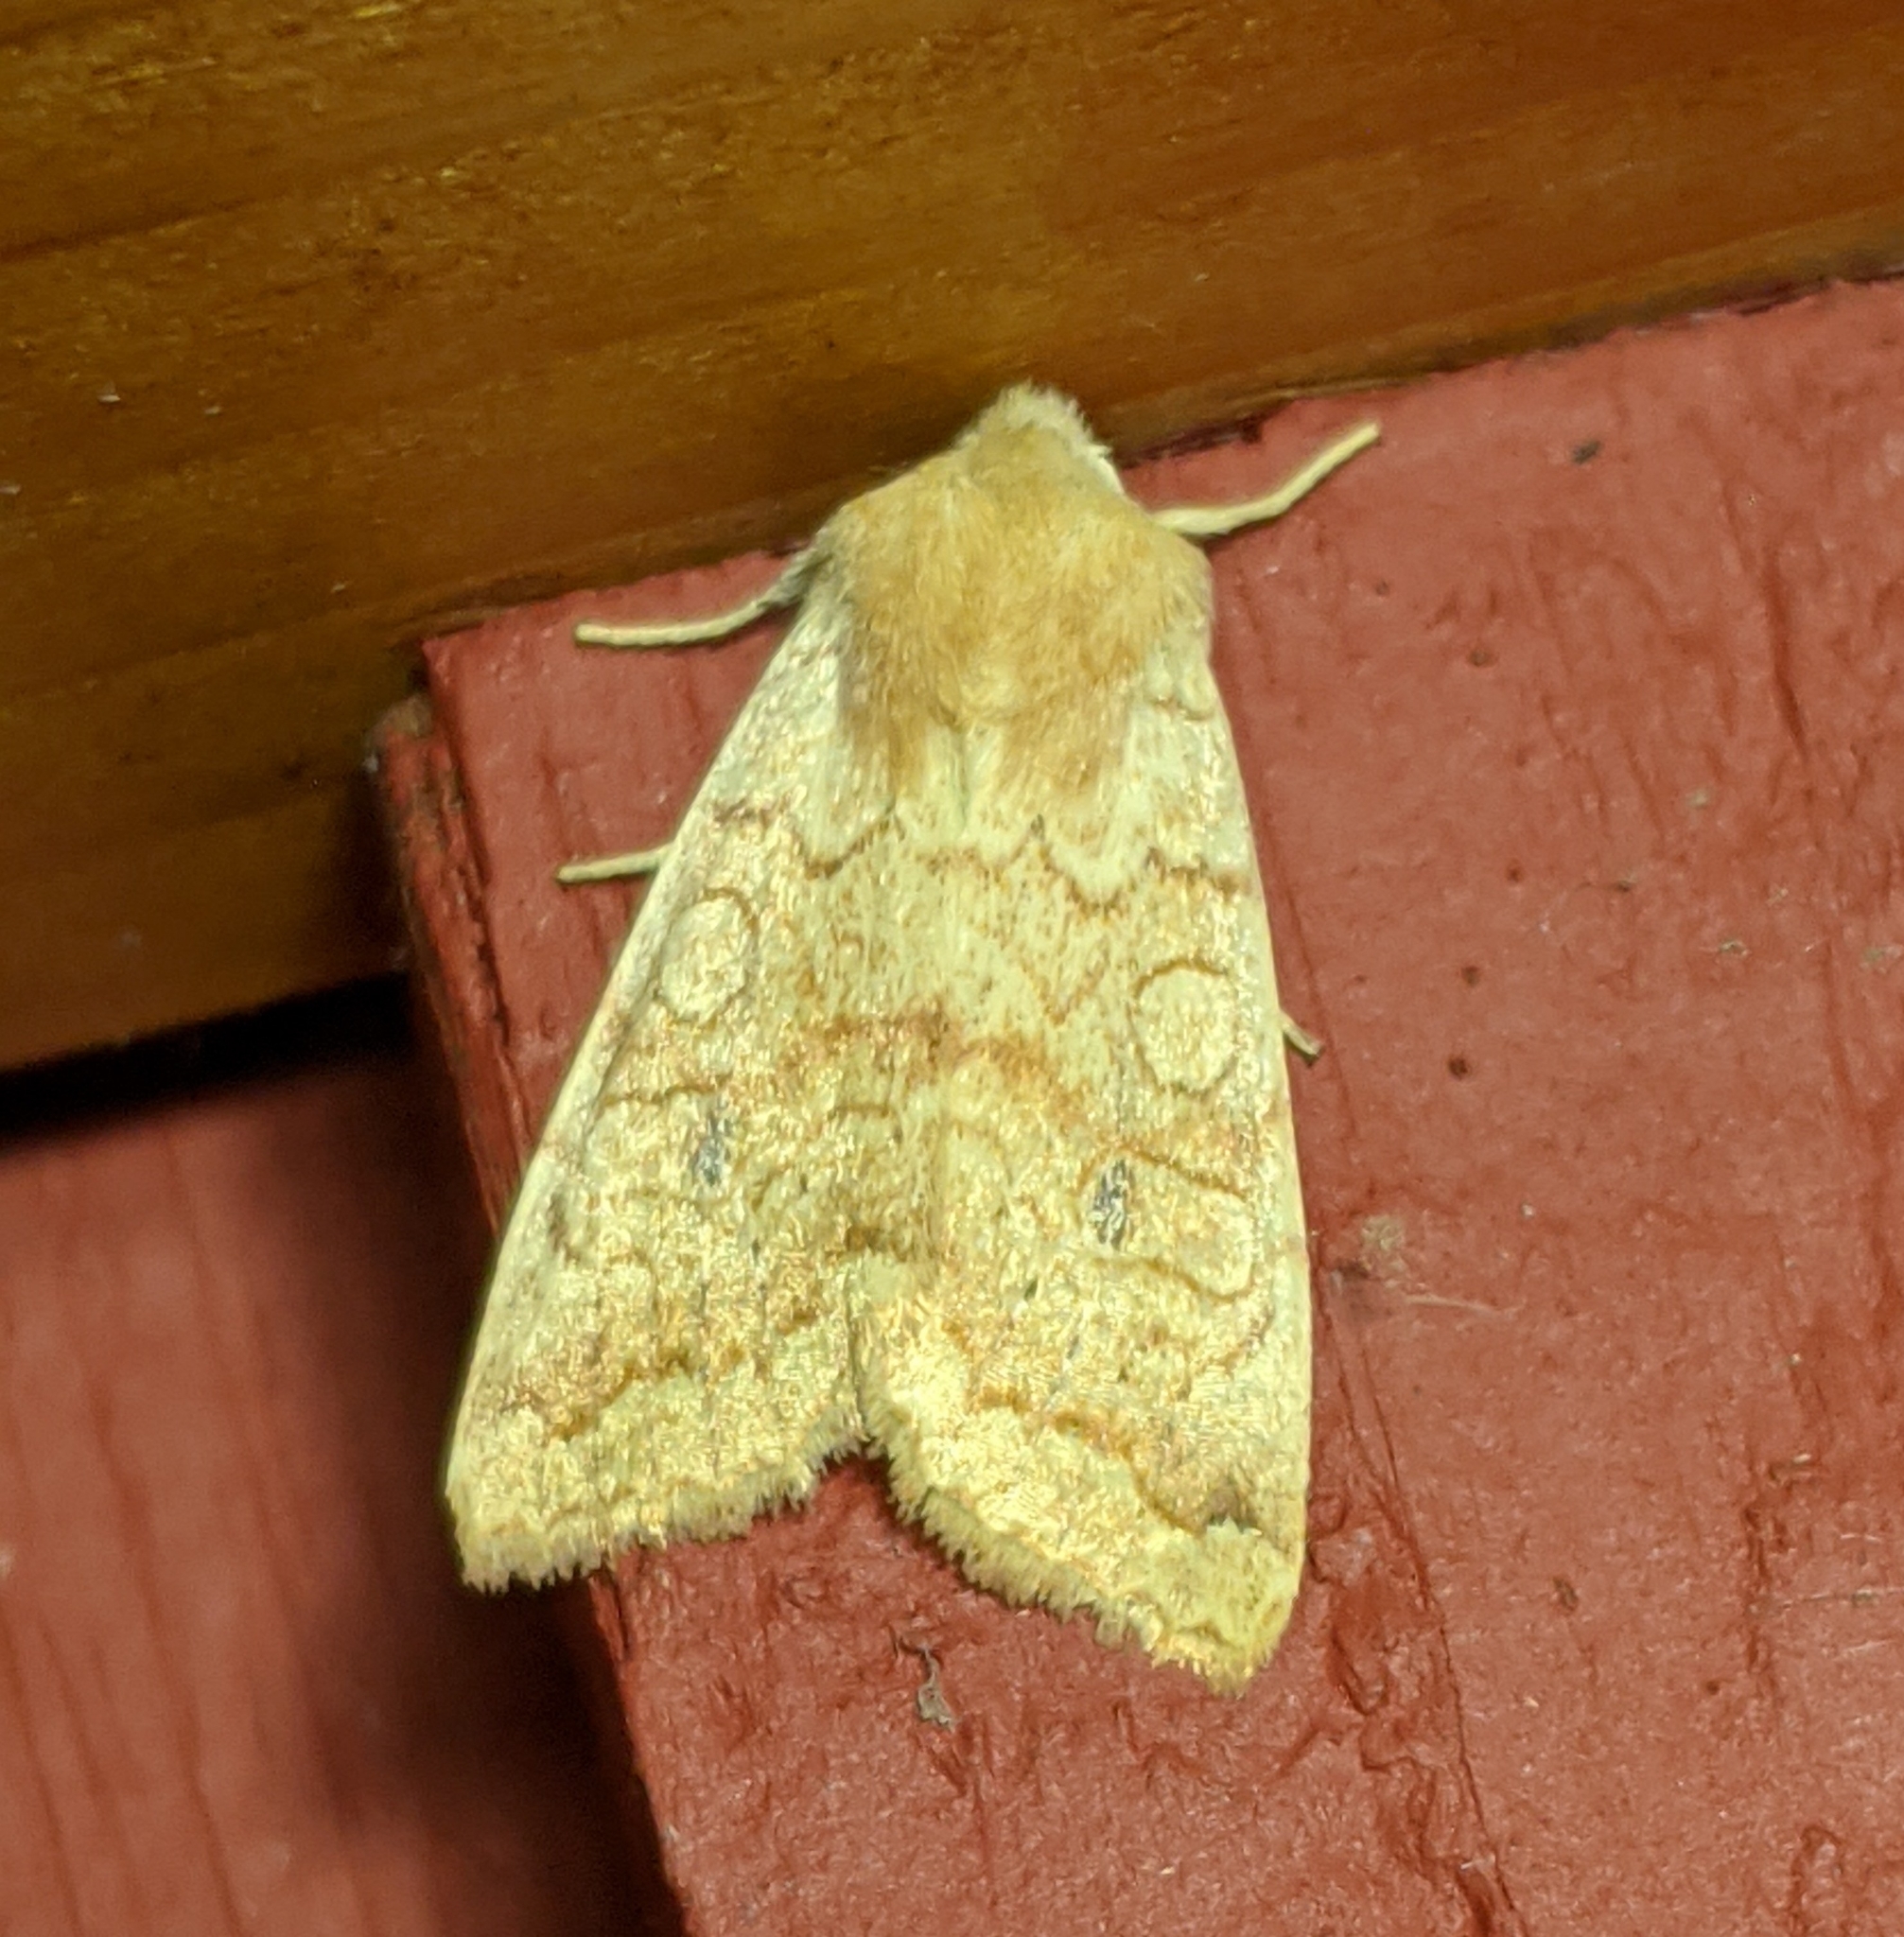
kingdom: Animalia
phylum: Arthropoda
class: Insecta
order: Lepidoptera
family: Noctuidae
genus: Agrochola
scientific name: Agrochola decipiens
